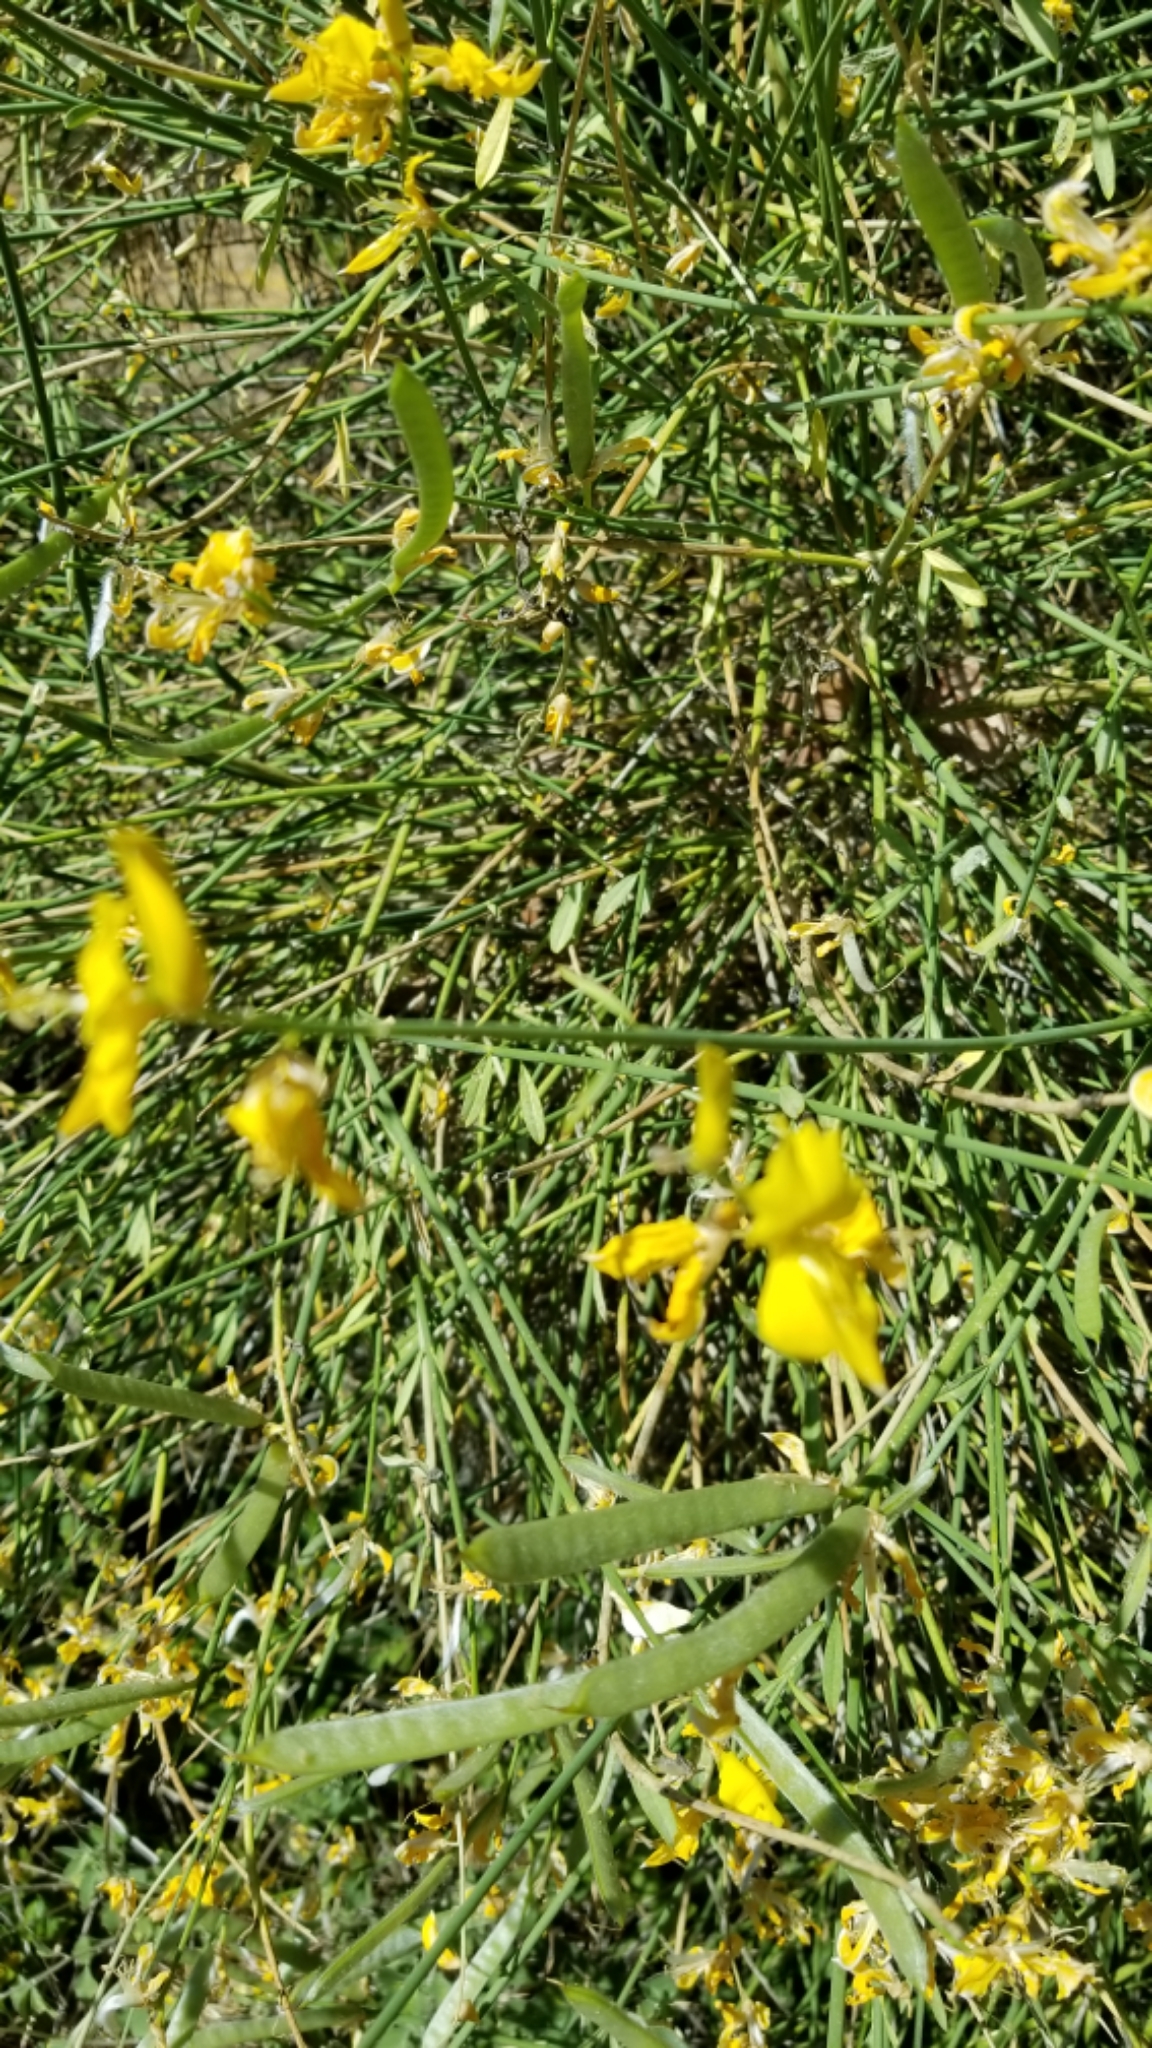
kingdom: Plantae
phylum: Tracheophyta
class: Magnoliopsida
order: Fabales
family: Fabaceae
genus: Spartium
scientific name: Spartium junceum
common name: Spanish broom
